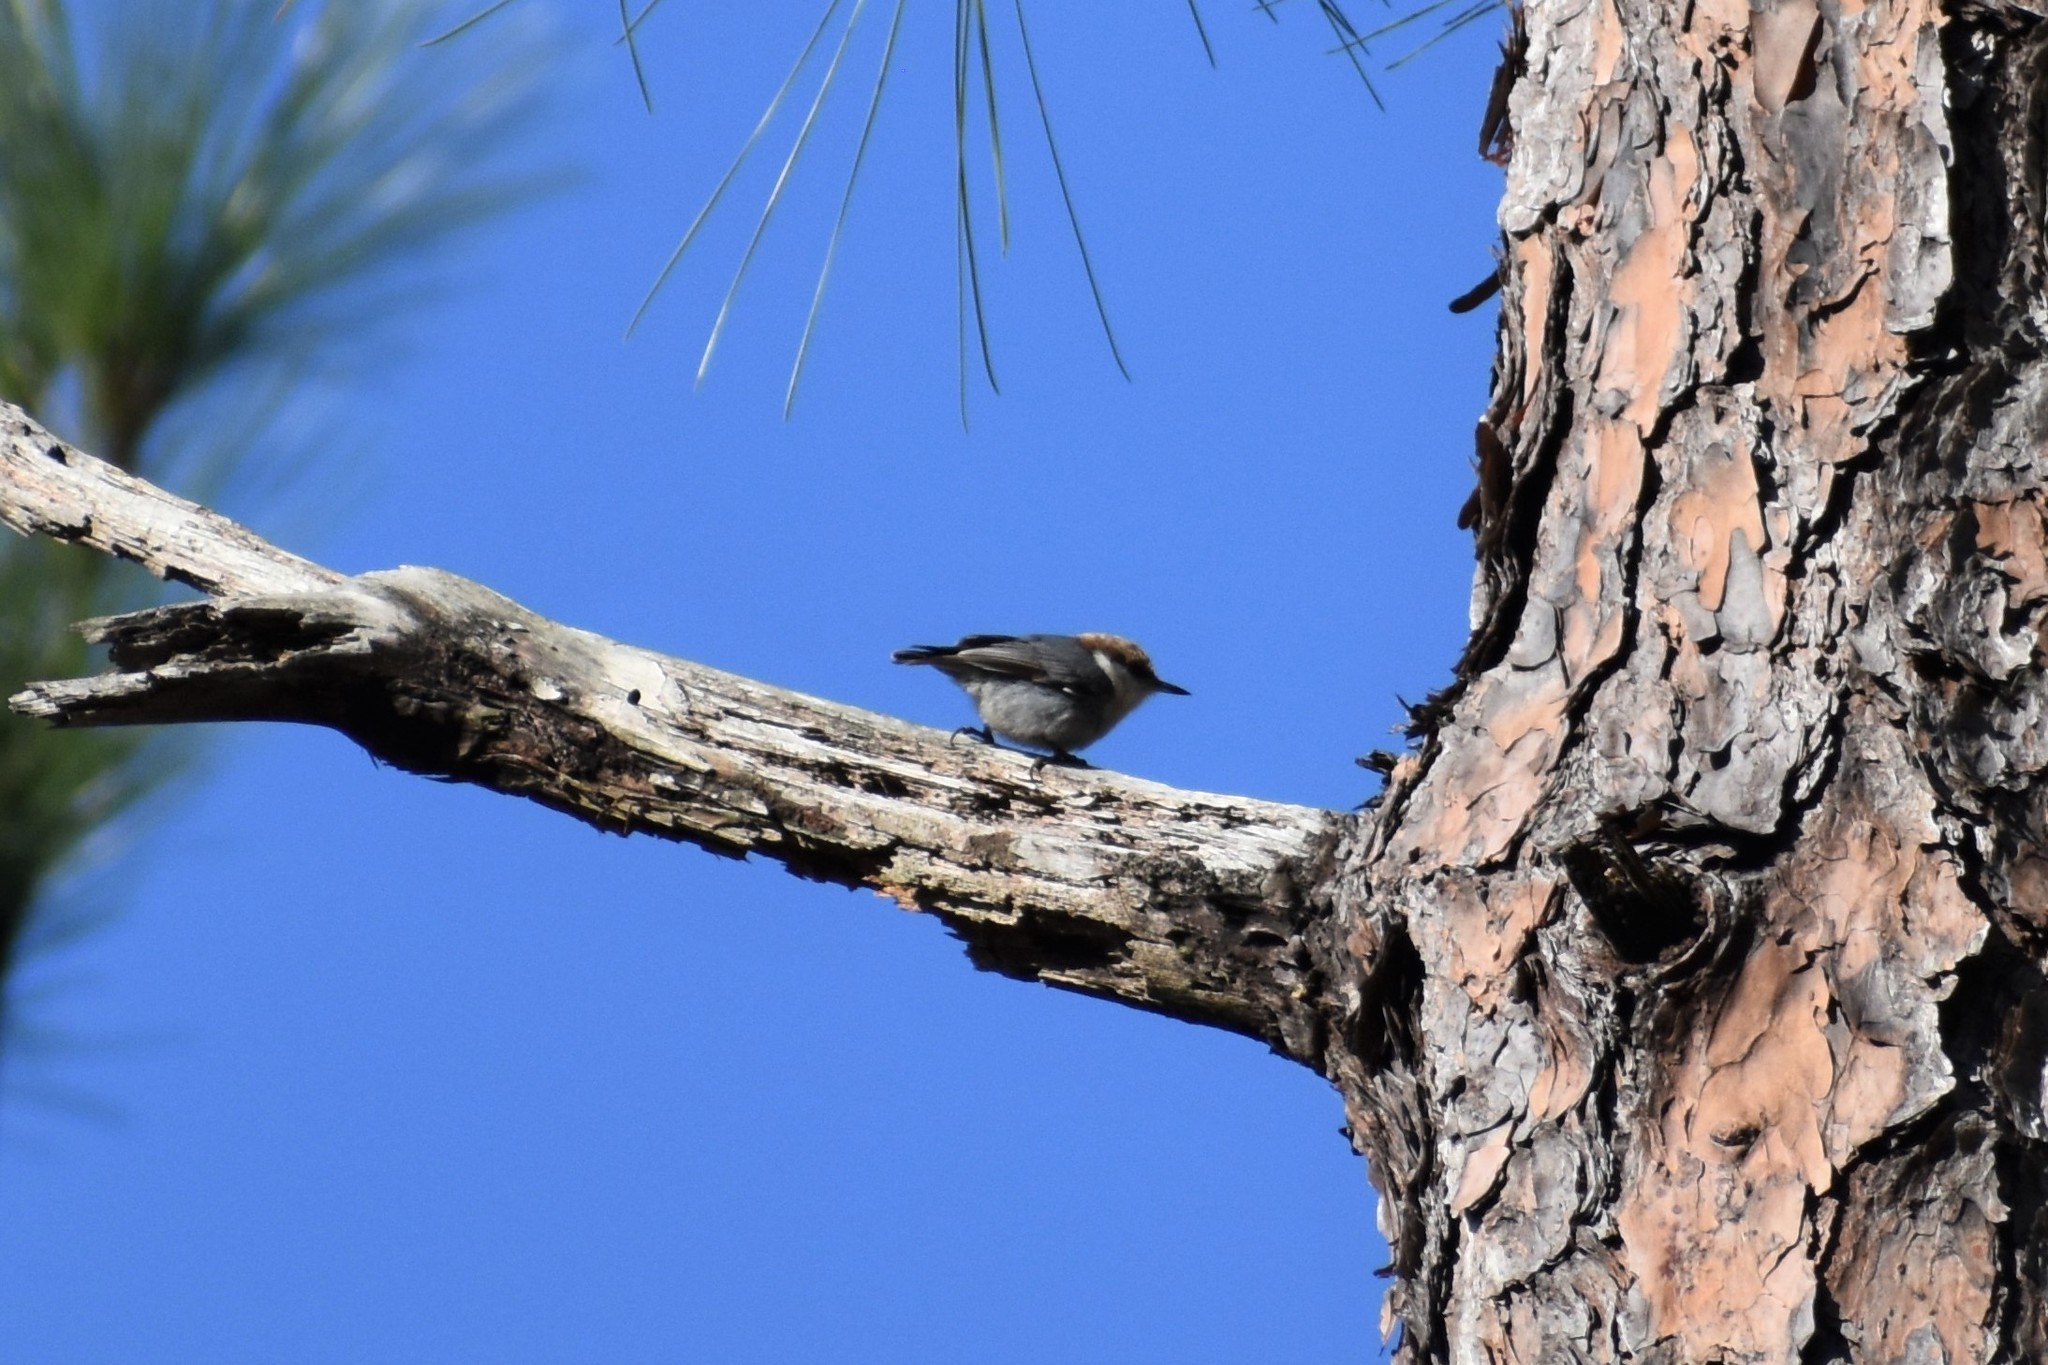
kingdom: Animalia
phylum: Chordata
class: Aves
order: Passeriformes
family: Sittidae
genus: Sitta
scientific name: Sitta pusilla
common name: Brown-headed nuthatch
